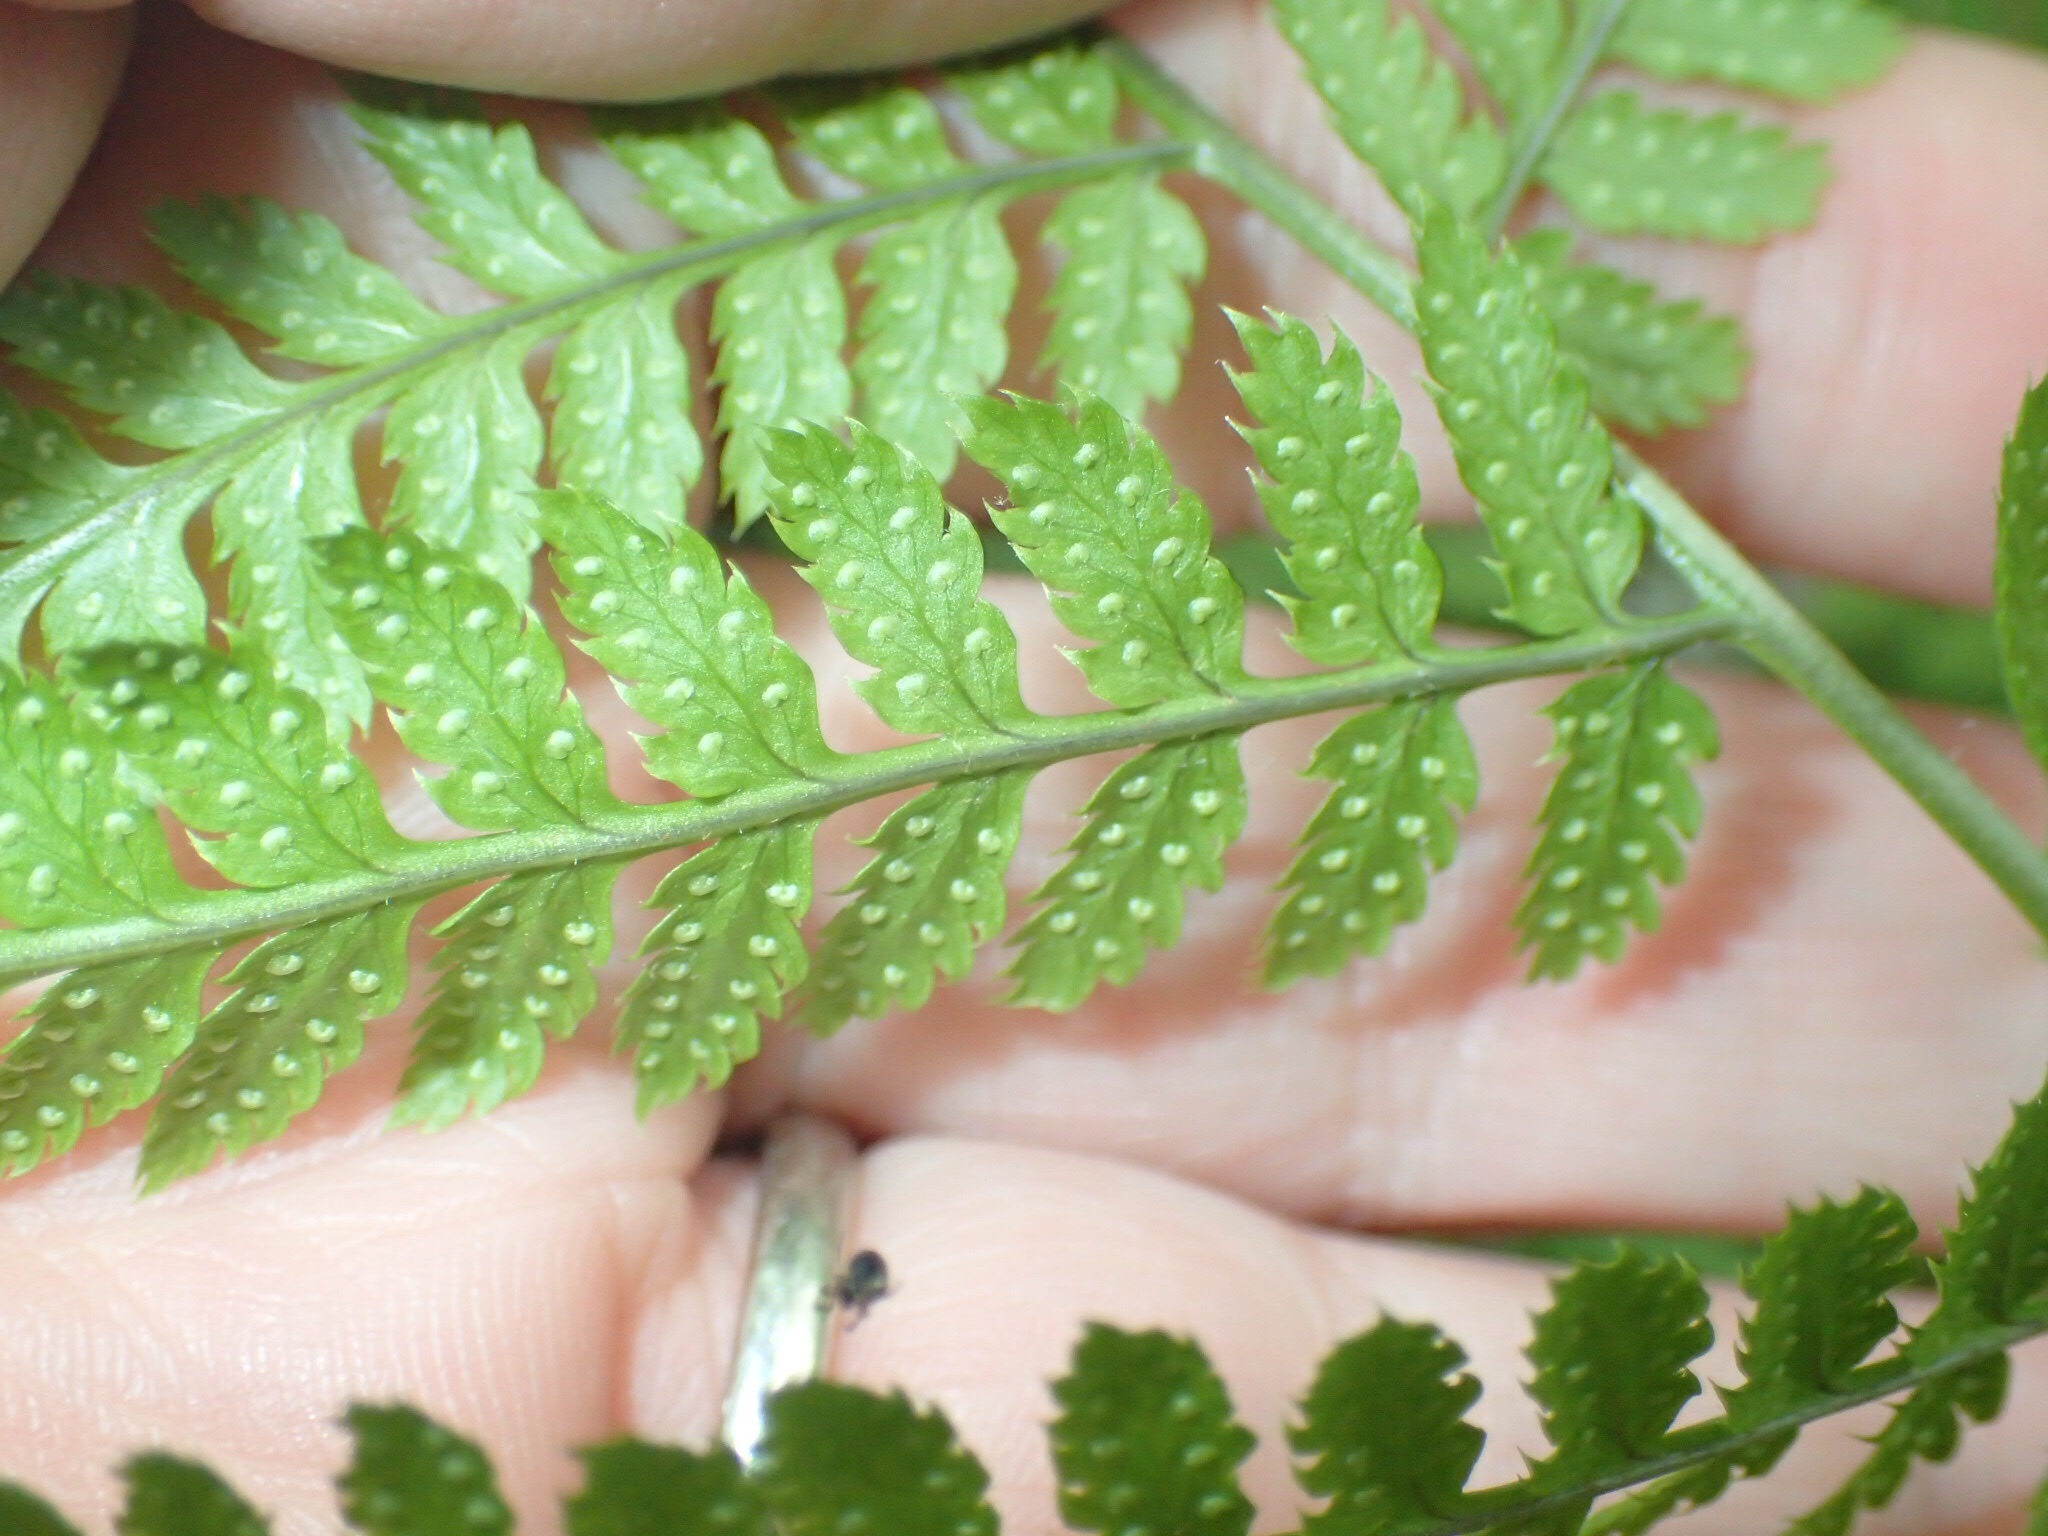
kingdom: Plantae
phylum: Tracheophyta
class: Polypodiopsida
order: Polypodiales
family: Dryopteridaceae
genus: Dryopteris
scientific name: Dryopteris carthusiana
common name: Narrow buckler-fern
